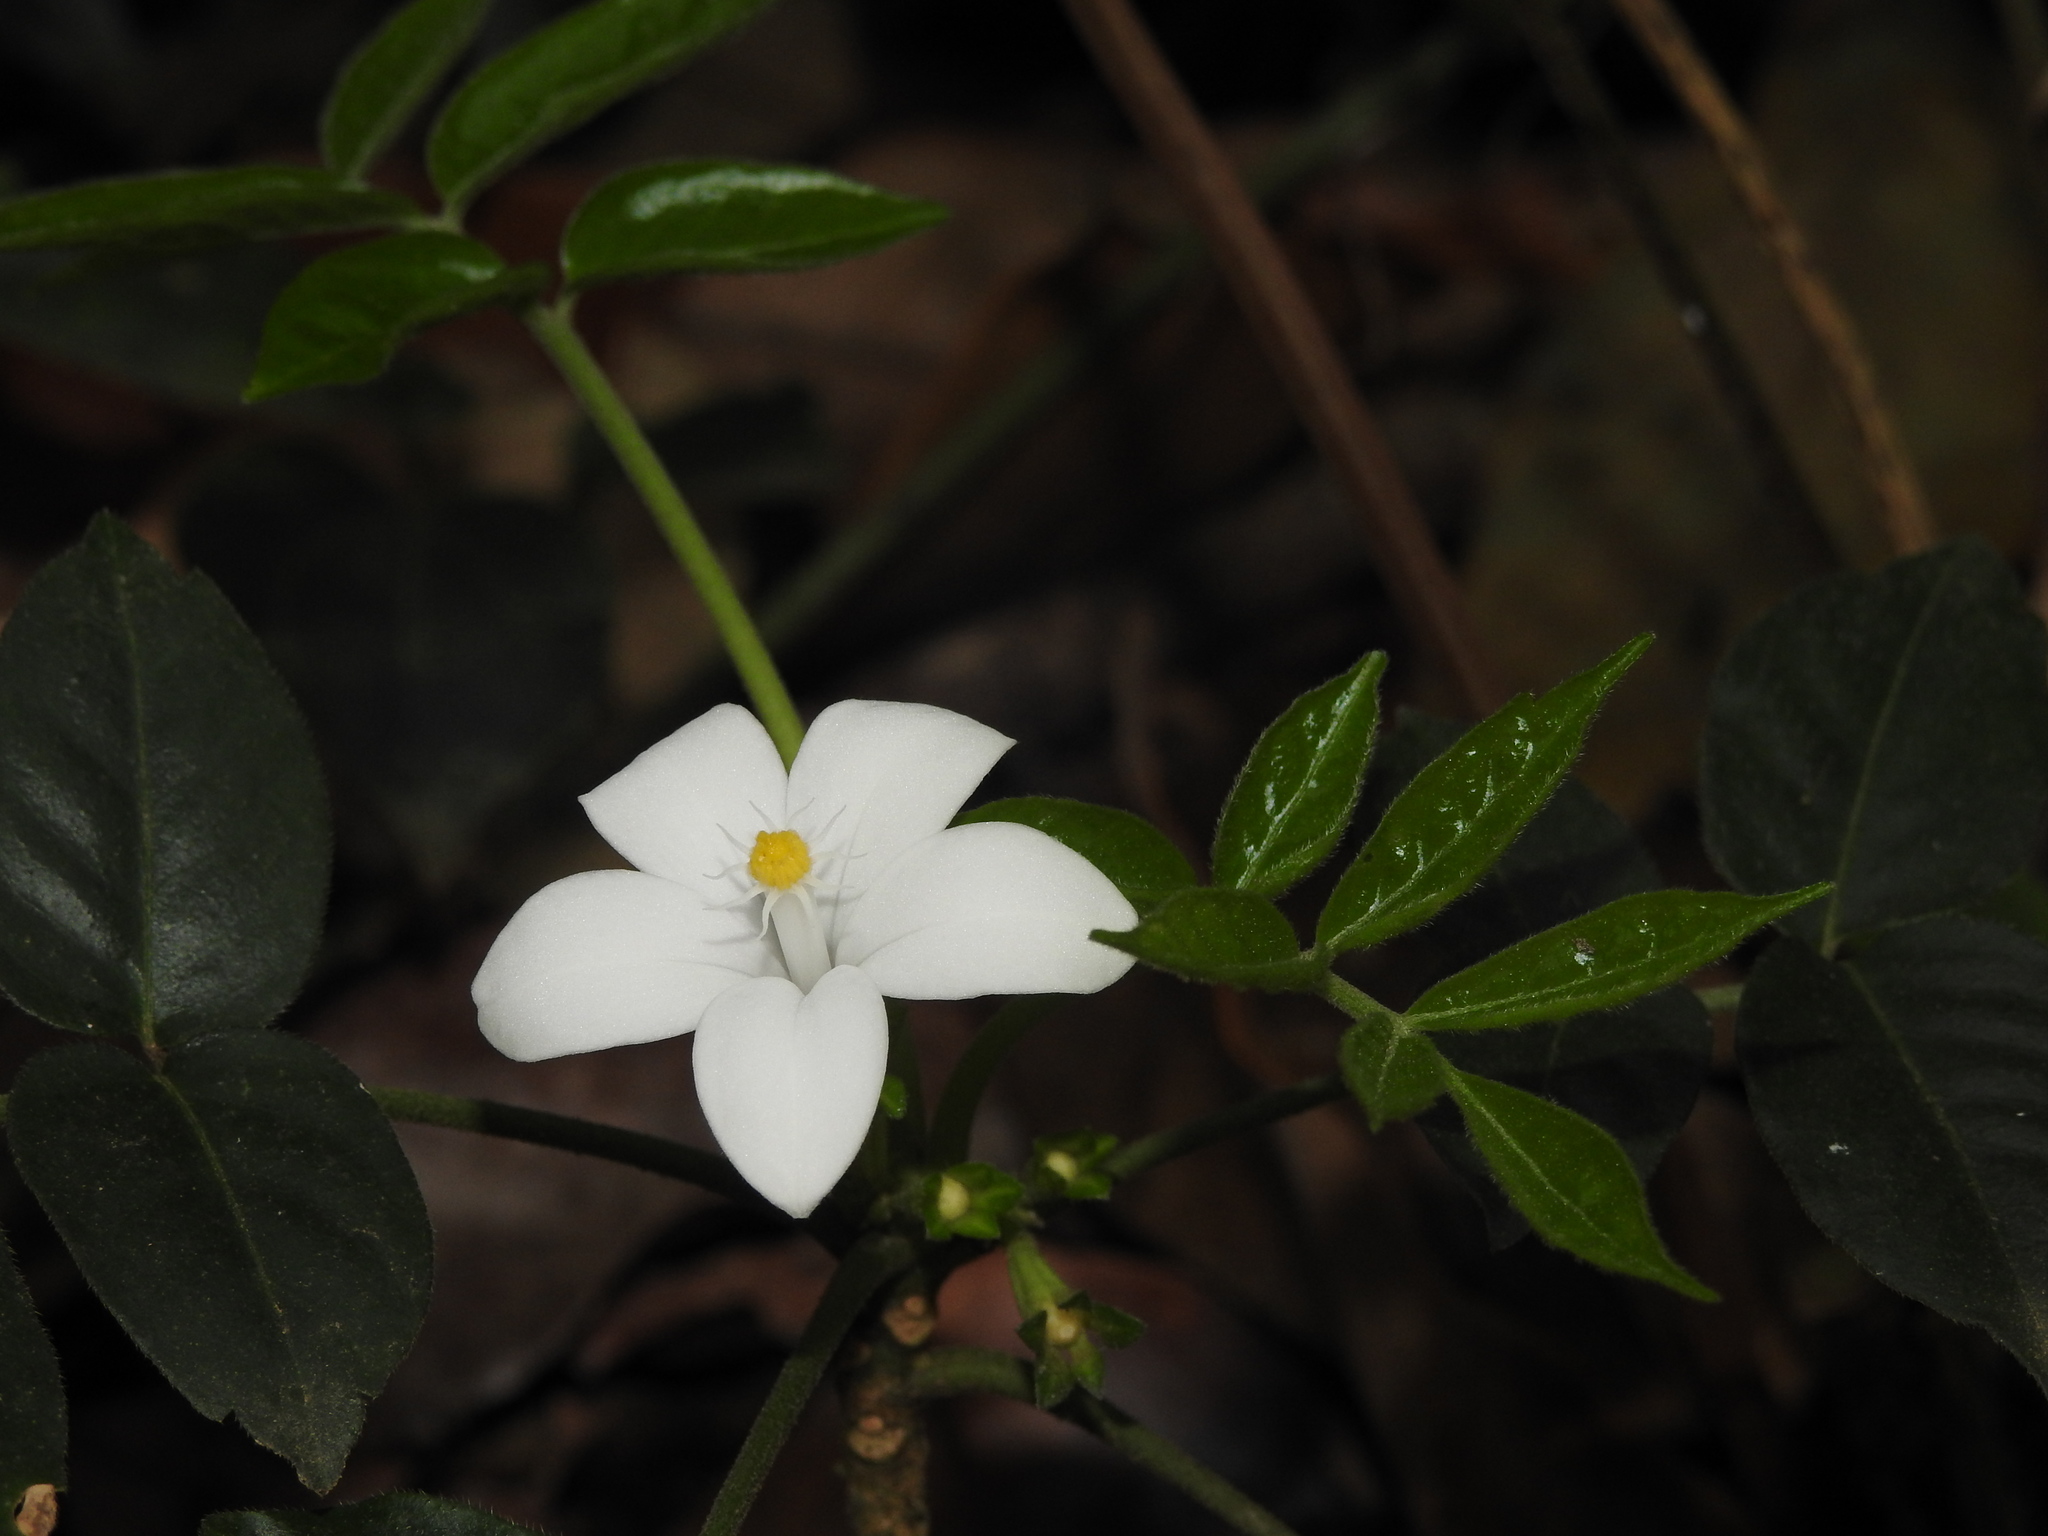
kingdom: Plantae
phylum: Tracheophyta
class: Magnoliopsida
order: Sapindales
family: Meliaceae
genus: Munronia
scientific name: Munronia pinnata
